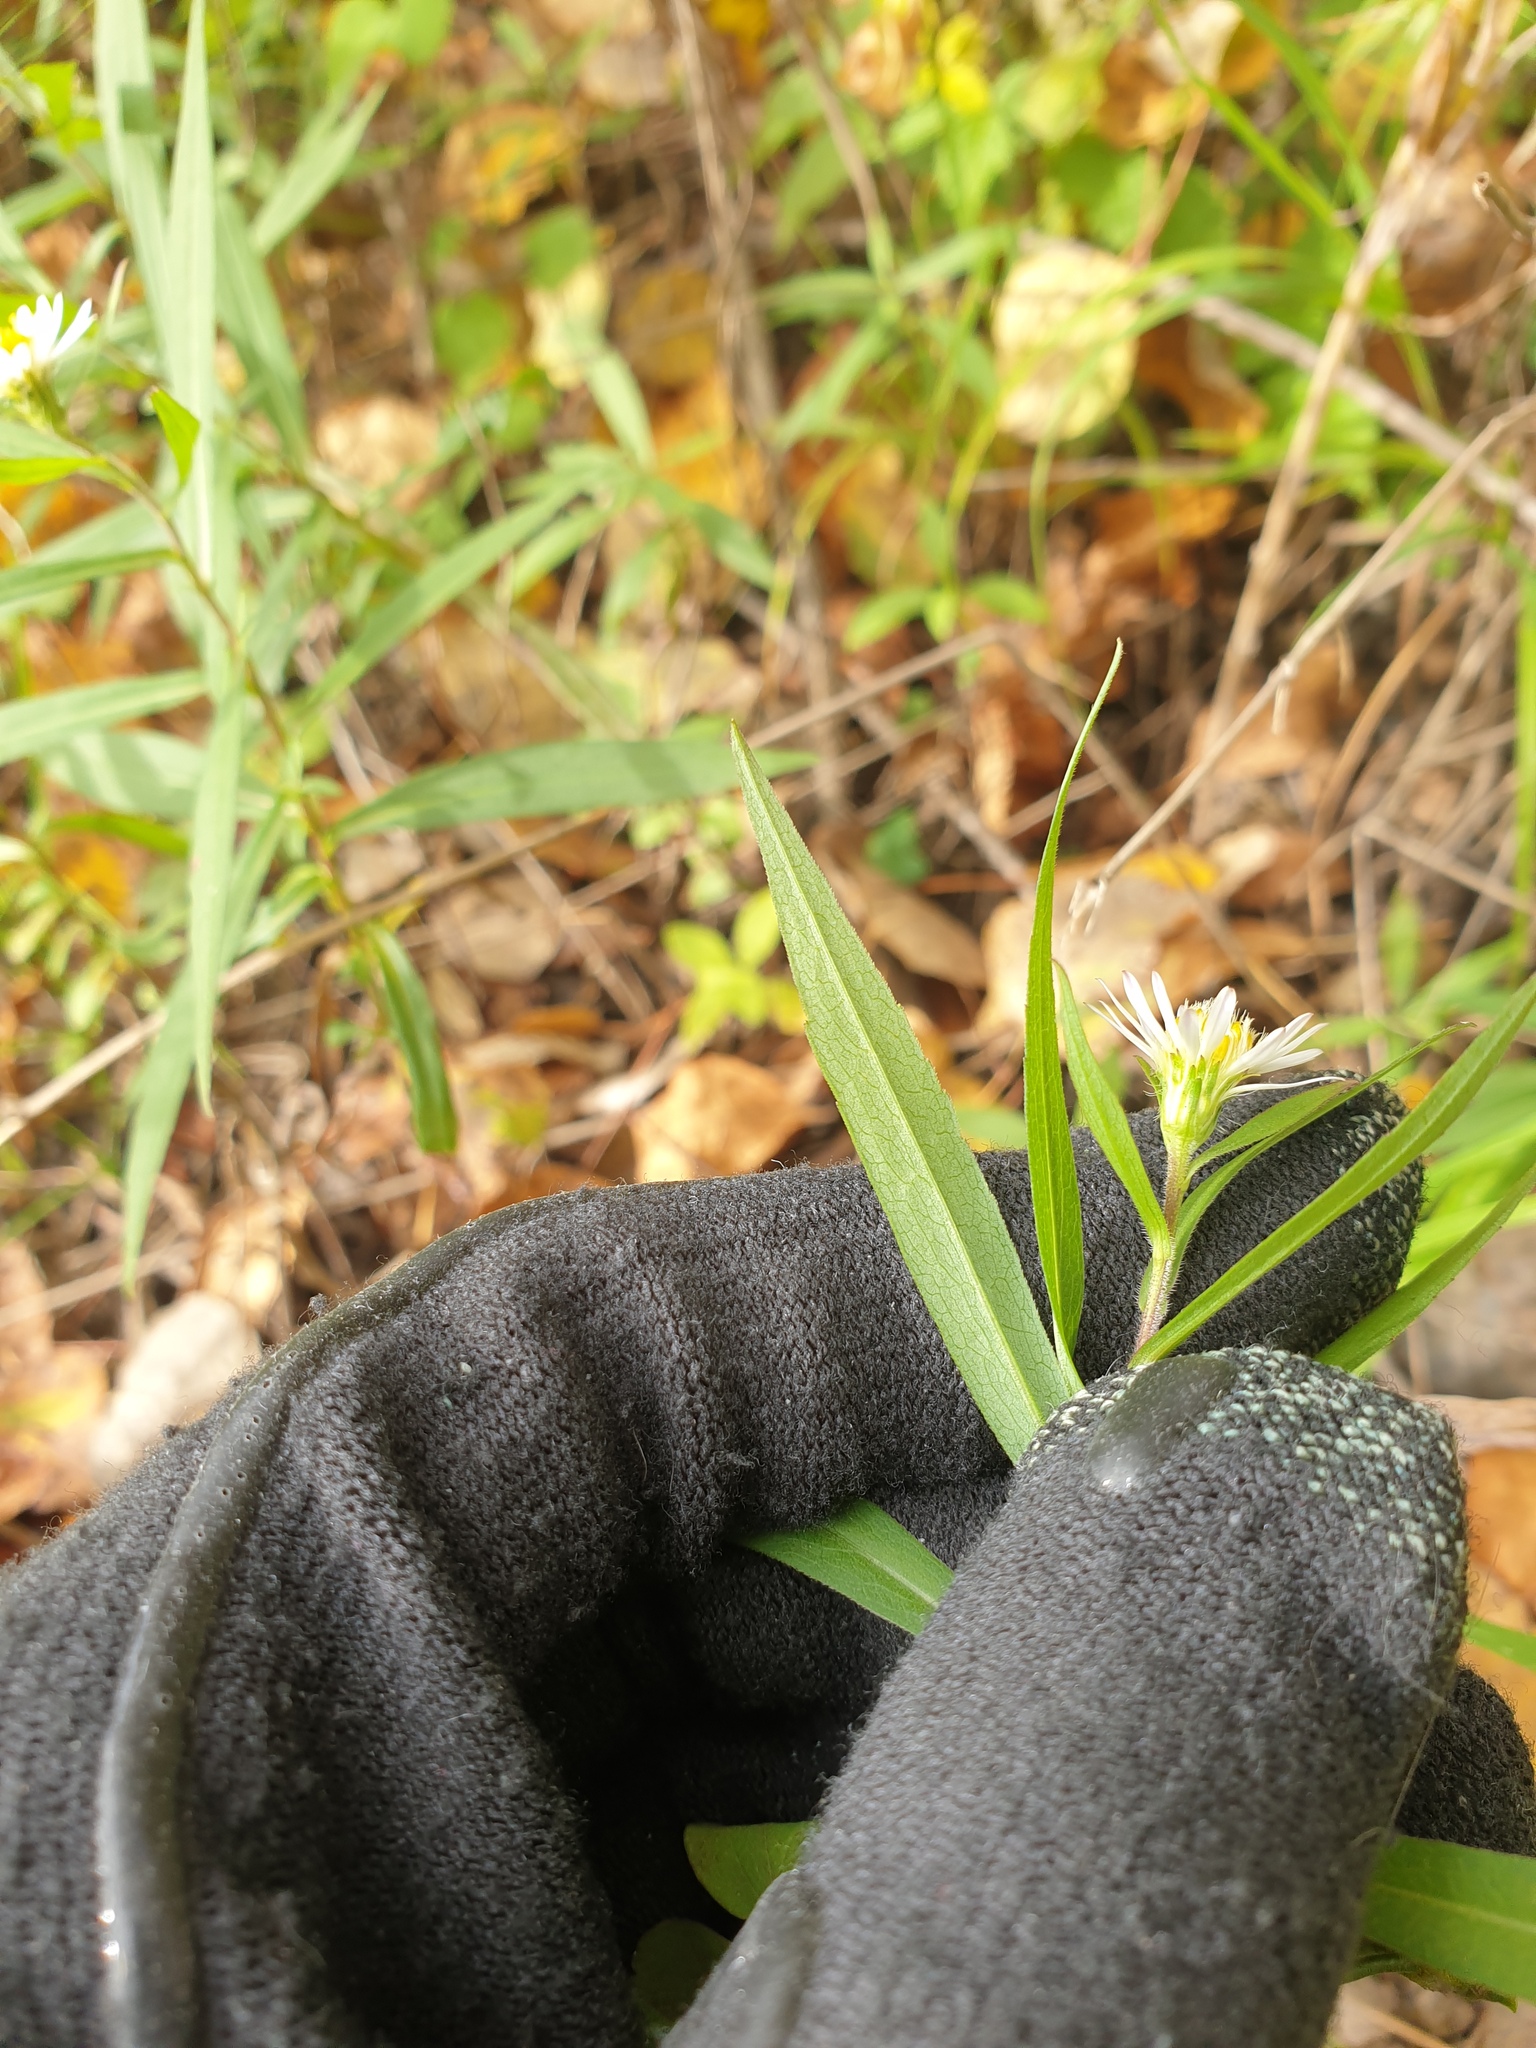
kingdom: Plantae
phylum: Tracheophyta
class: Magnoliopsida
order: Asterales
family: Asteraceae
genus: Symphyotrichum
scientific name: Symphyotrichum novi-belgii
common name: Michaelmas daisy
